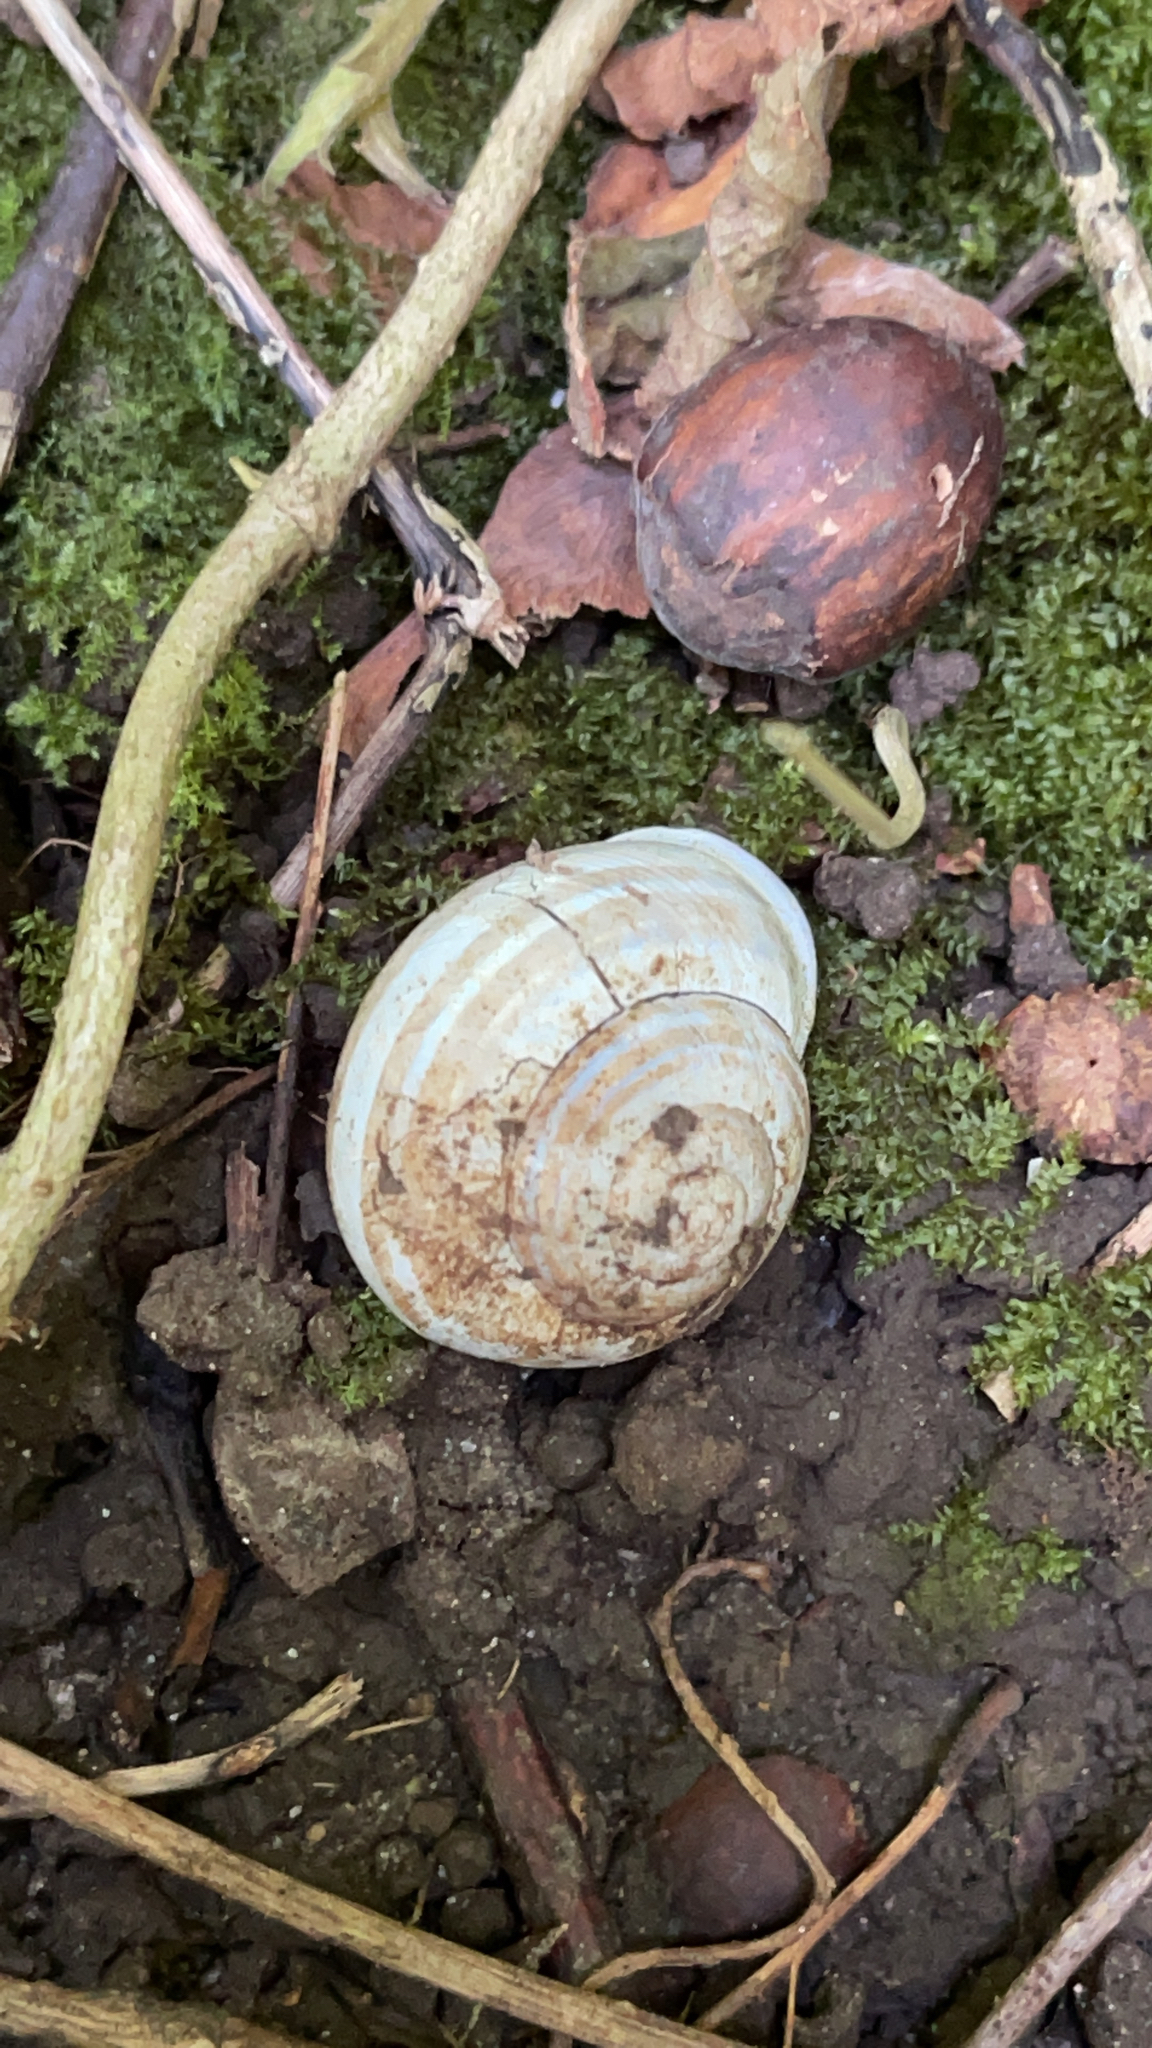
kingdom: Animalia
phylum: Mollusca
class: Gastropoda
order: Stylommatophora
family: Helicidae
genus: Eobania
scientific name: Eobania vermiculata
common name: Chocolateband snail
